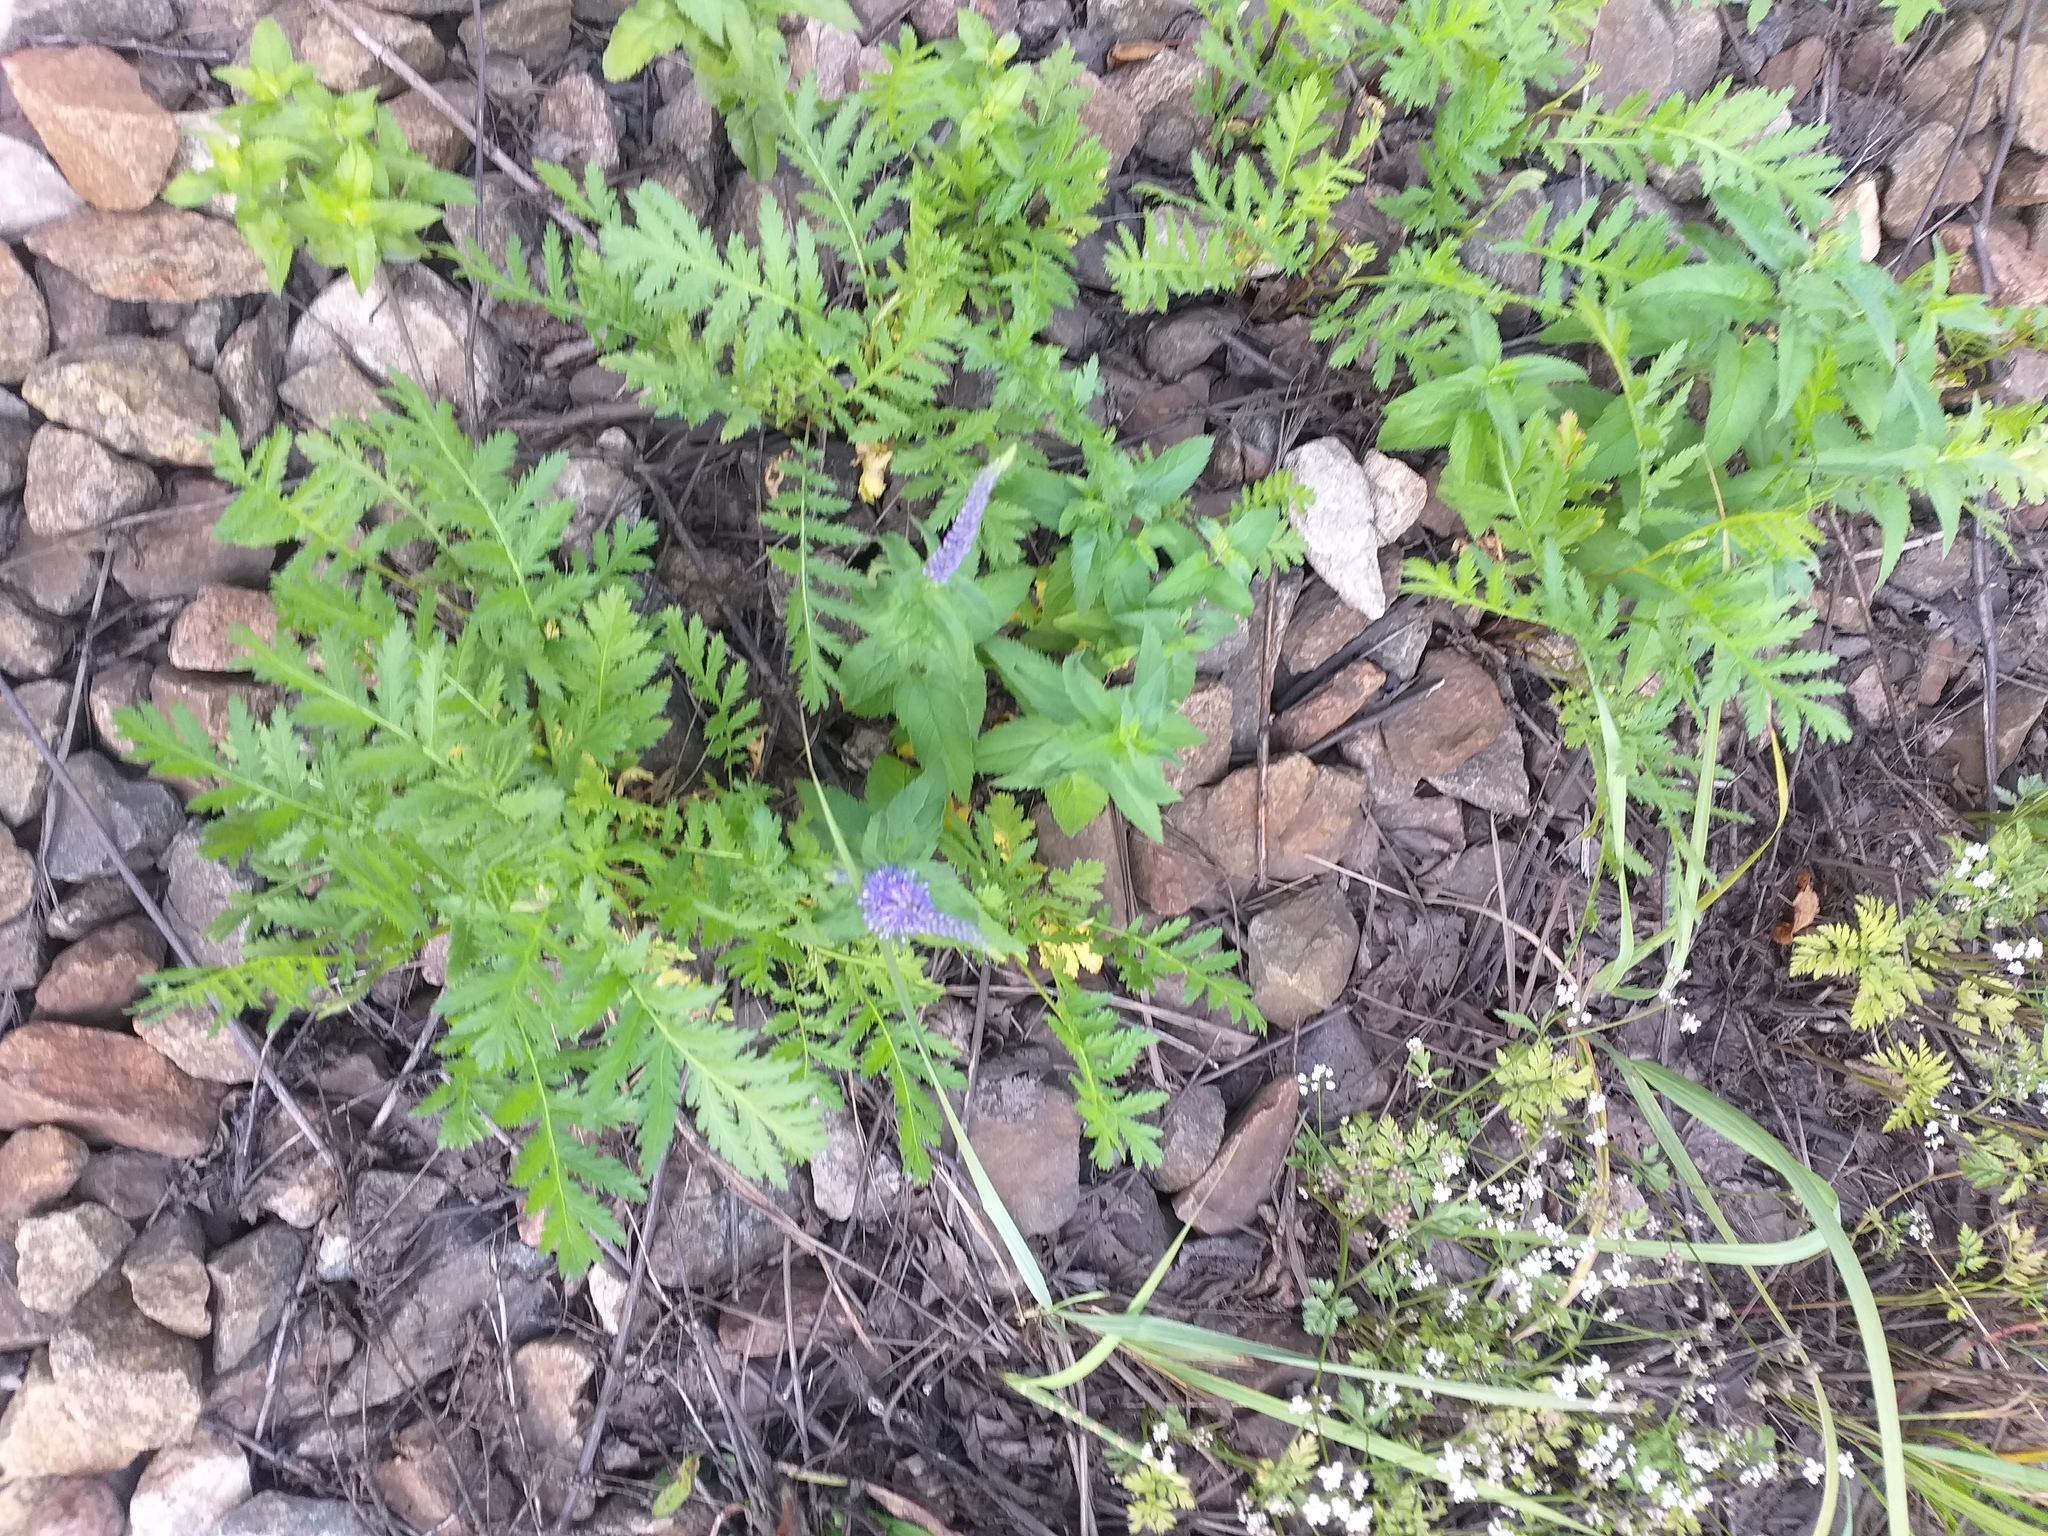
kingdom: Plantae
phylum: Tracheophyta
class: Magnoliopsida
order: Lamiales
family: Plantaginaceae
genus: Veronica
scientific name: Veronica longifolia
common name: Garden speedwell
